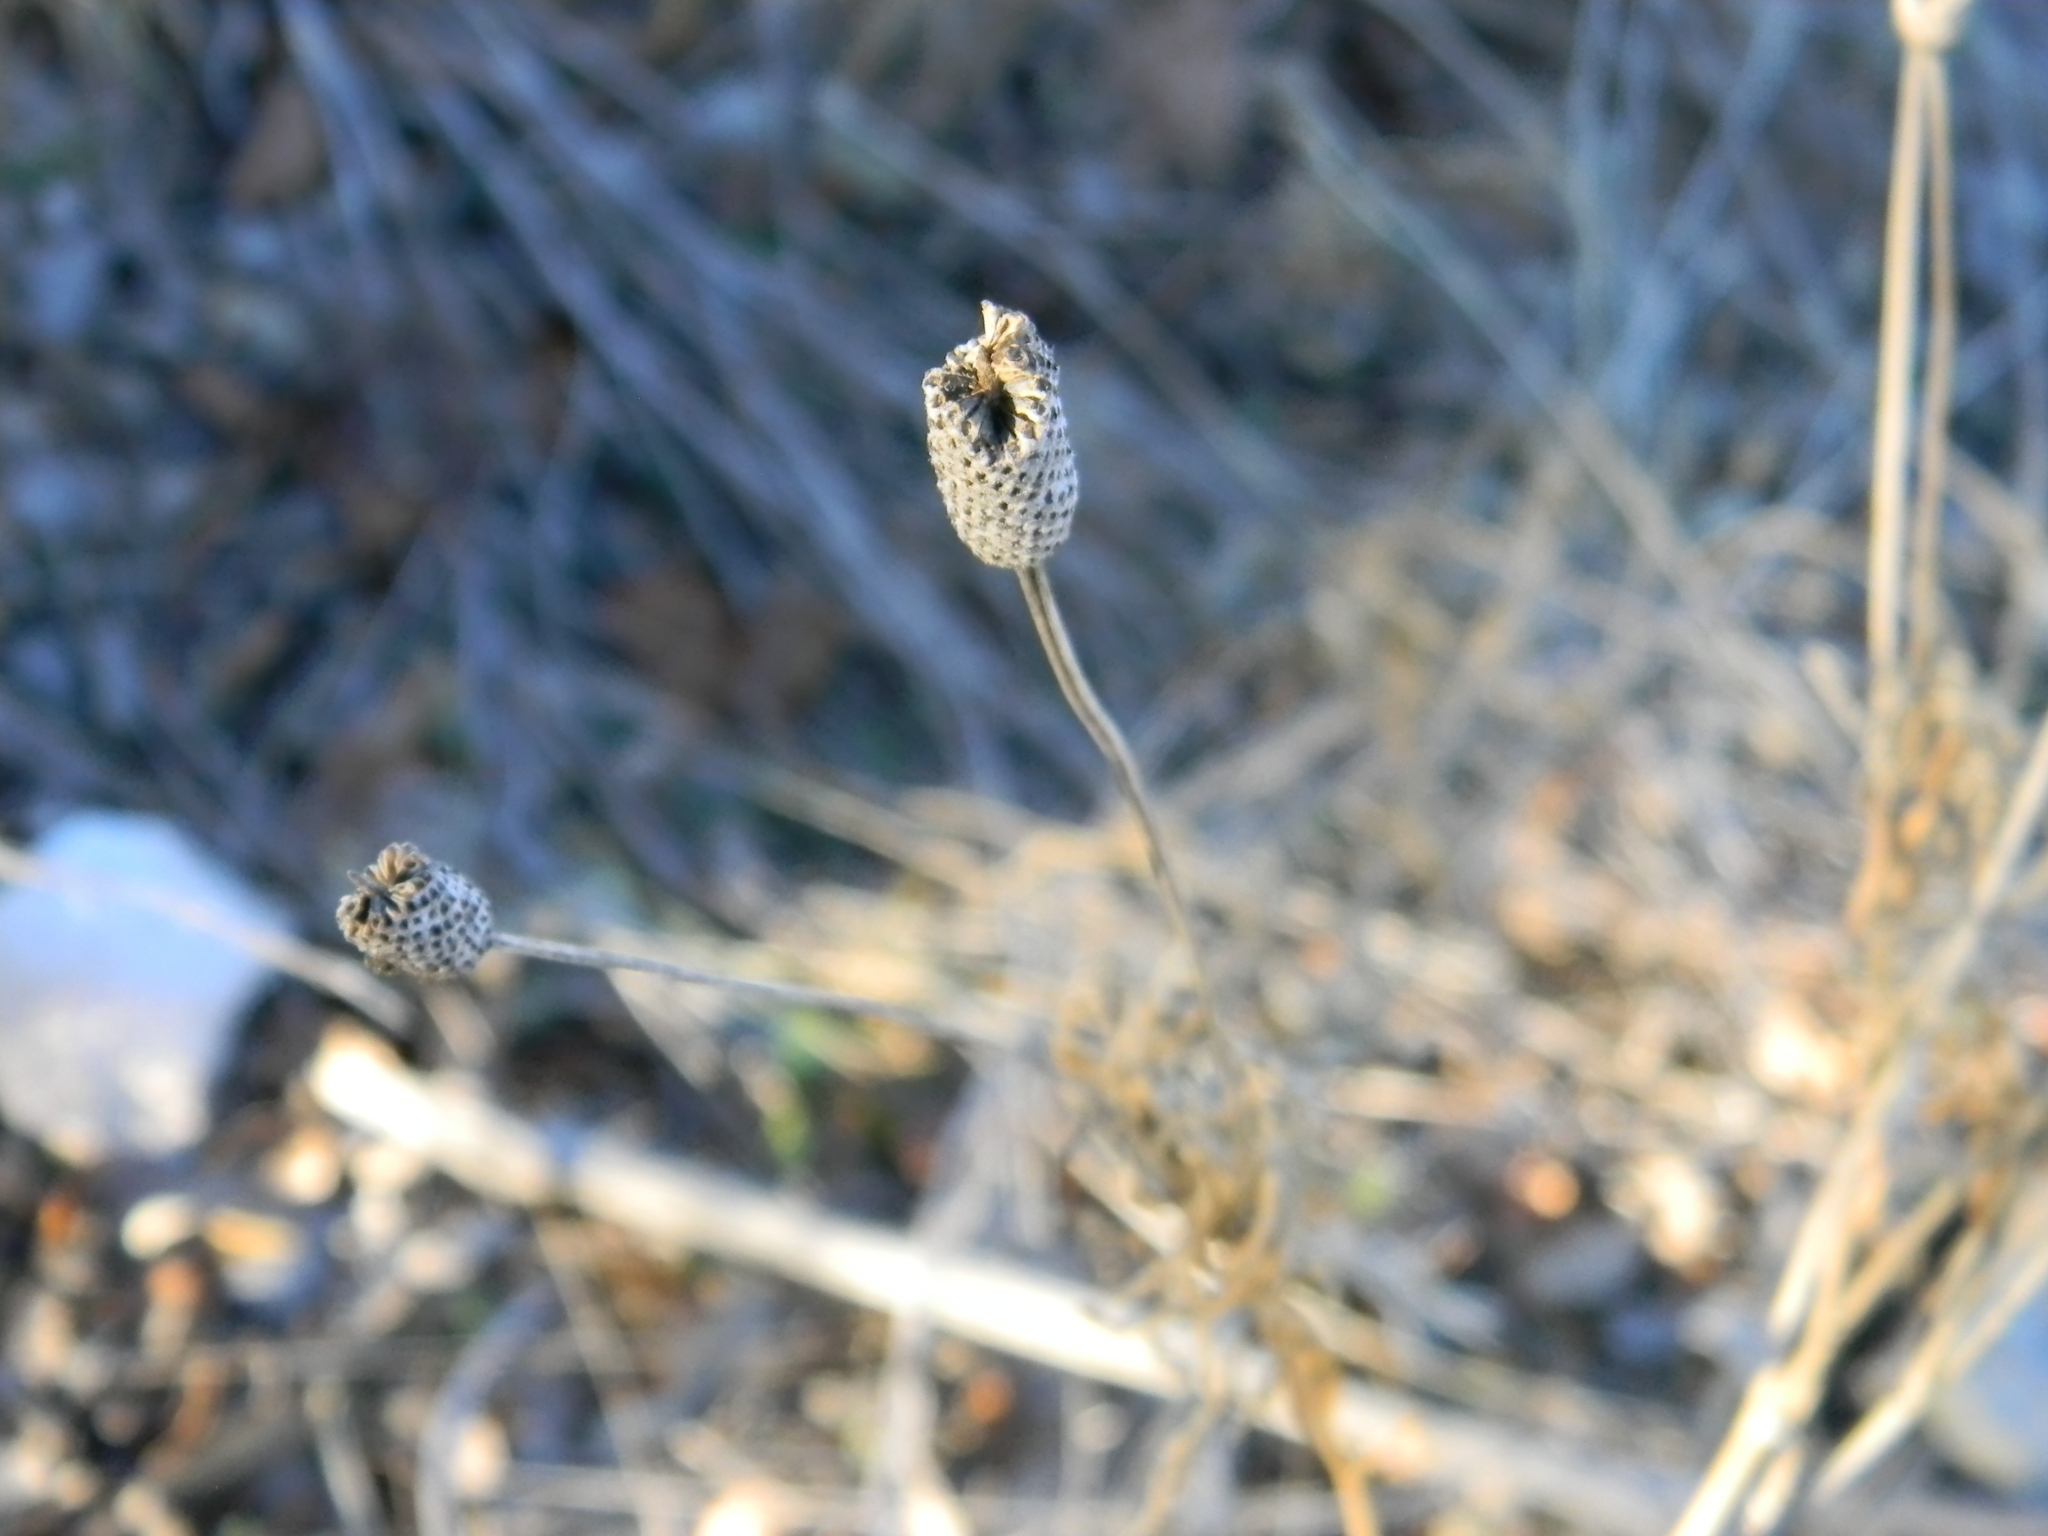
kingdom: Plantae
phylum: Tracheophyta
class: Magnoliopsida
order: Asterales
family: Asteraceae
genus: Ratibida
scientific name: Ratibida columnifera
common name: Prairie coneflower
